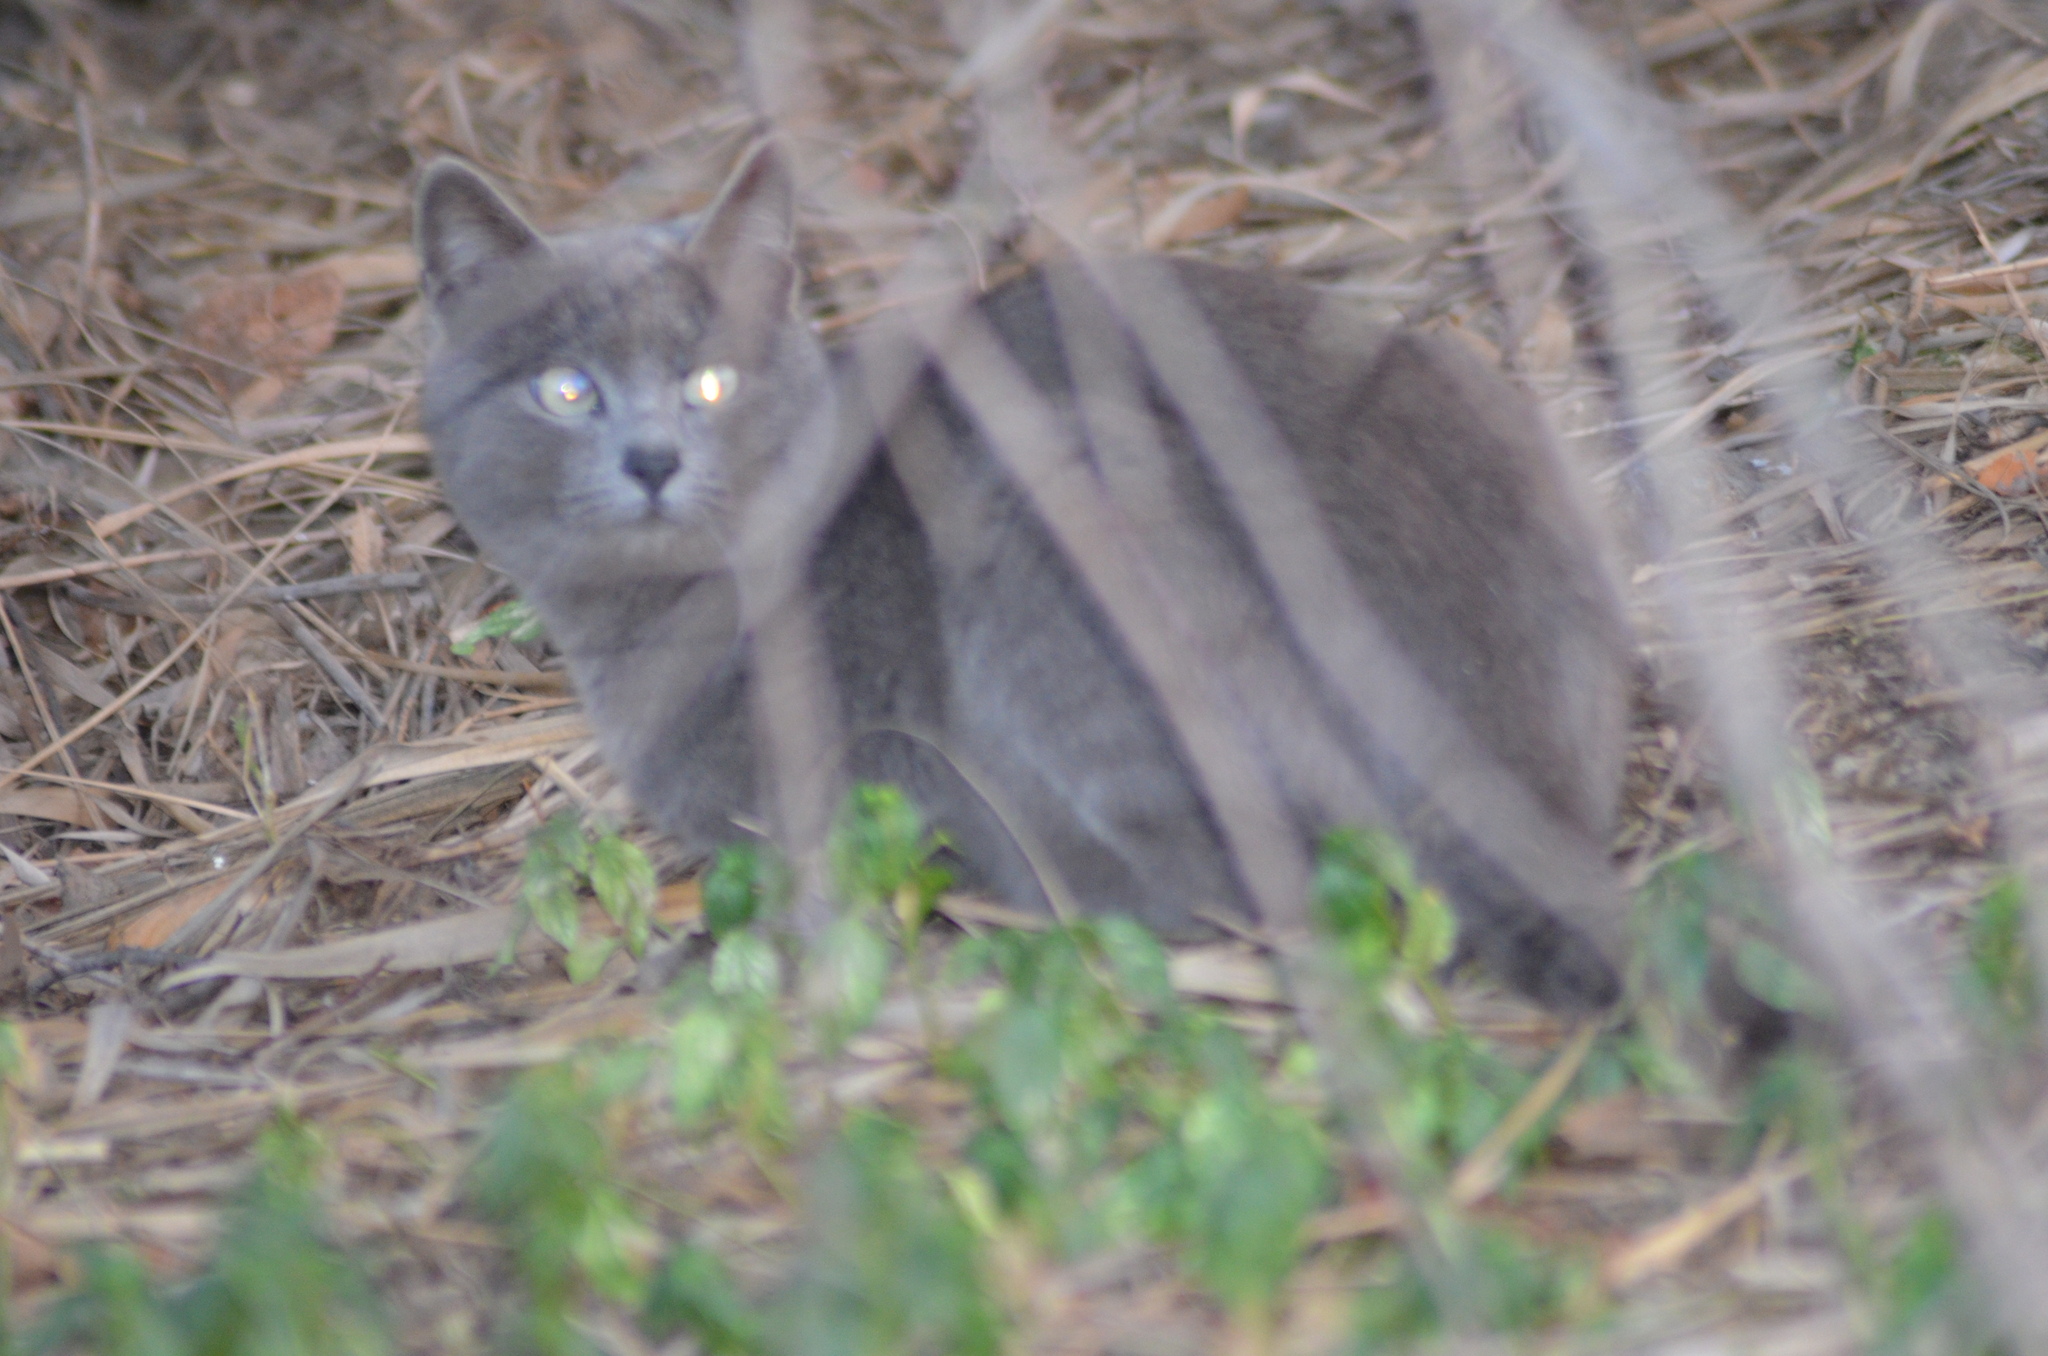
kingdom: Animalia
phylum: Chordata
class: Mammalia
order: Carnivora
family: Felidae
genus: Felis
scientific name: Felis catus
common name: Domestic cat
